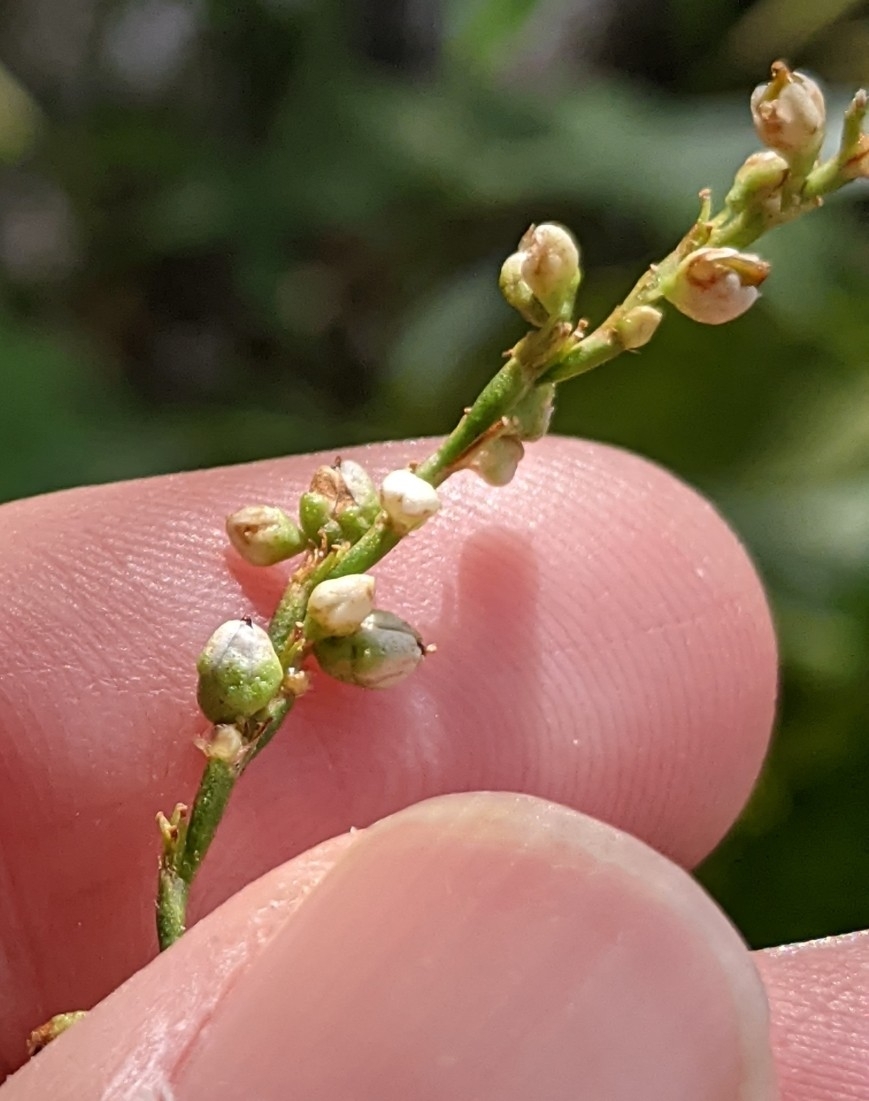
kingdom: Plantae
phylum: Tracheophyta
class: Magnoliopsida
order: Caryophyllales
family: Polygonaceae
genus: Persicaria
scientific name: Persicaria punctata
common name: Dotted smartweed
